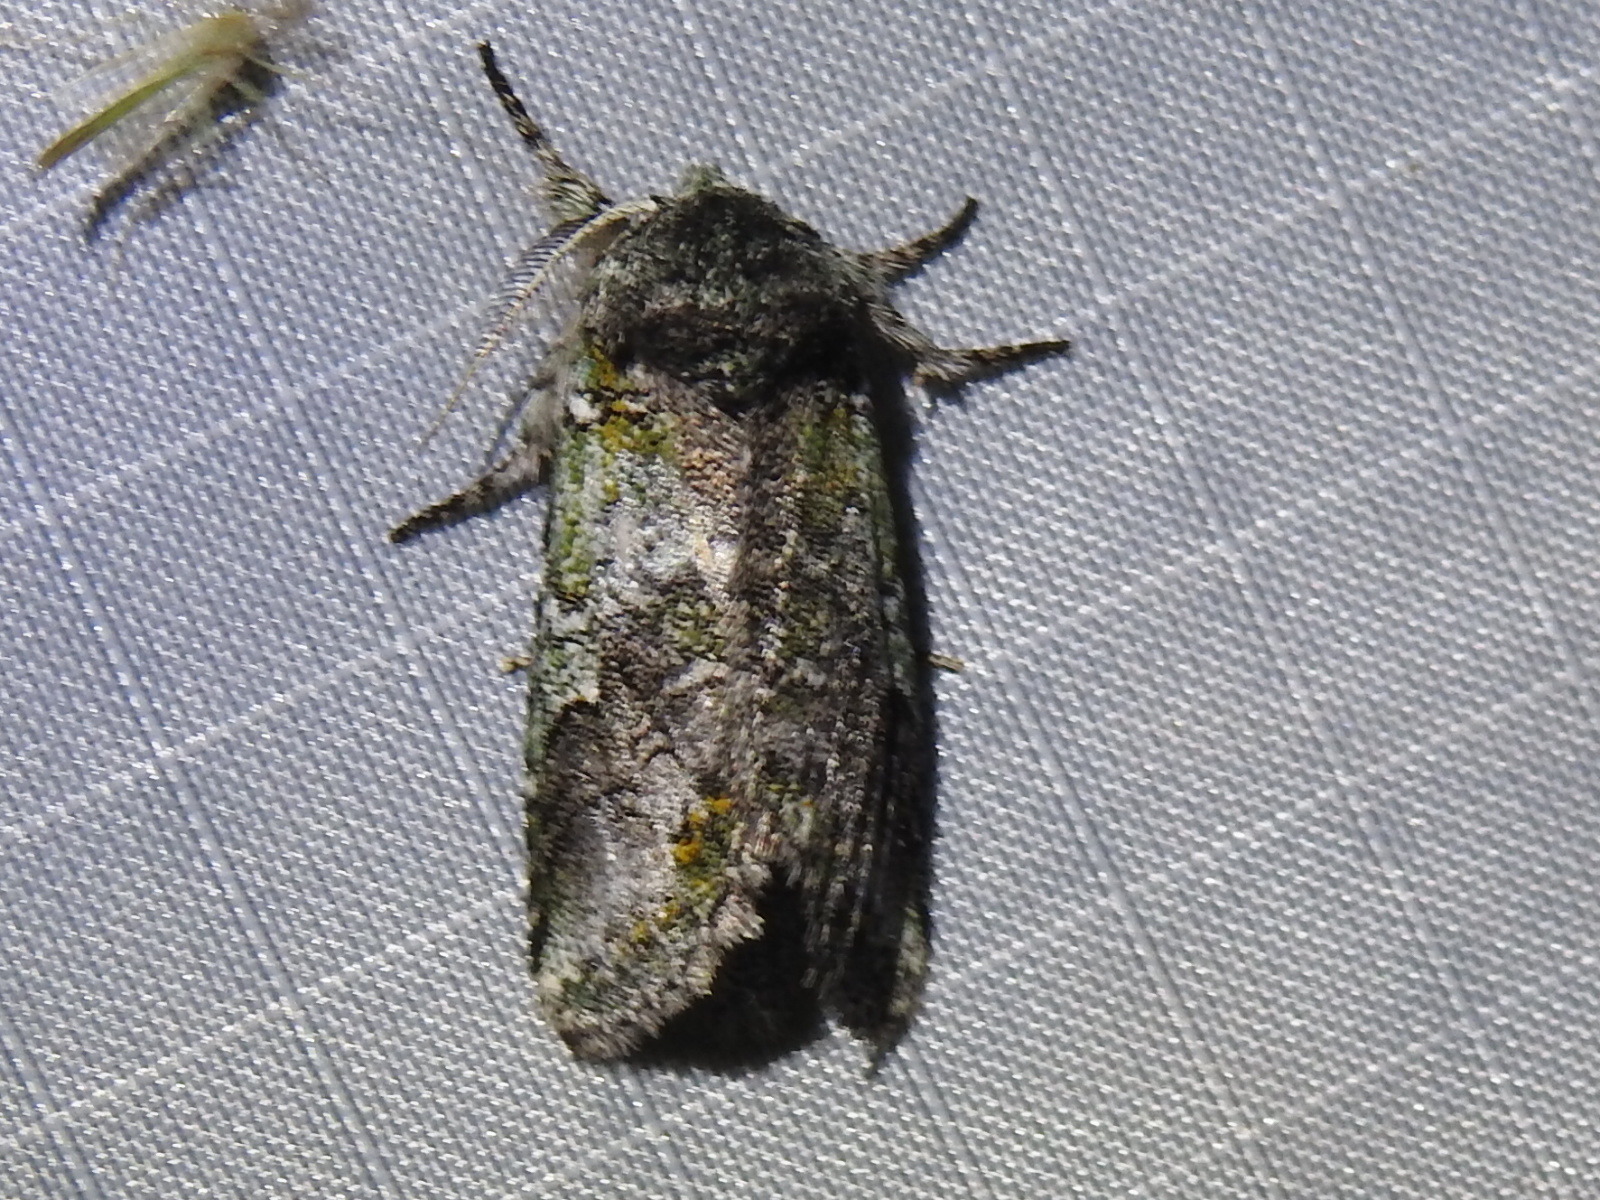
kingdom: Animalia
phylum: Arthropoda
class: Insecta
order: Lepidoptera
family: Notodontidae
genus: Litodonta
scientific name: Litodonta hydromeli
